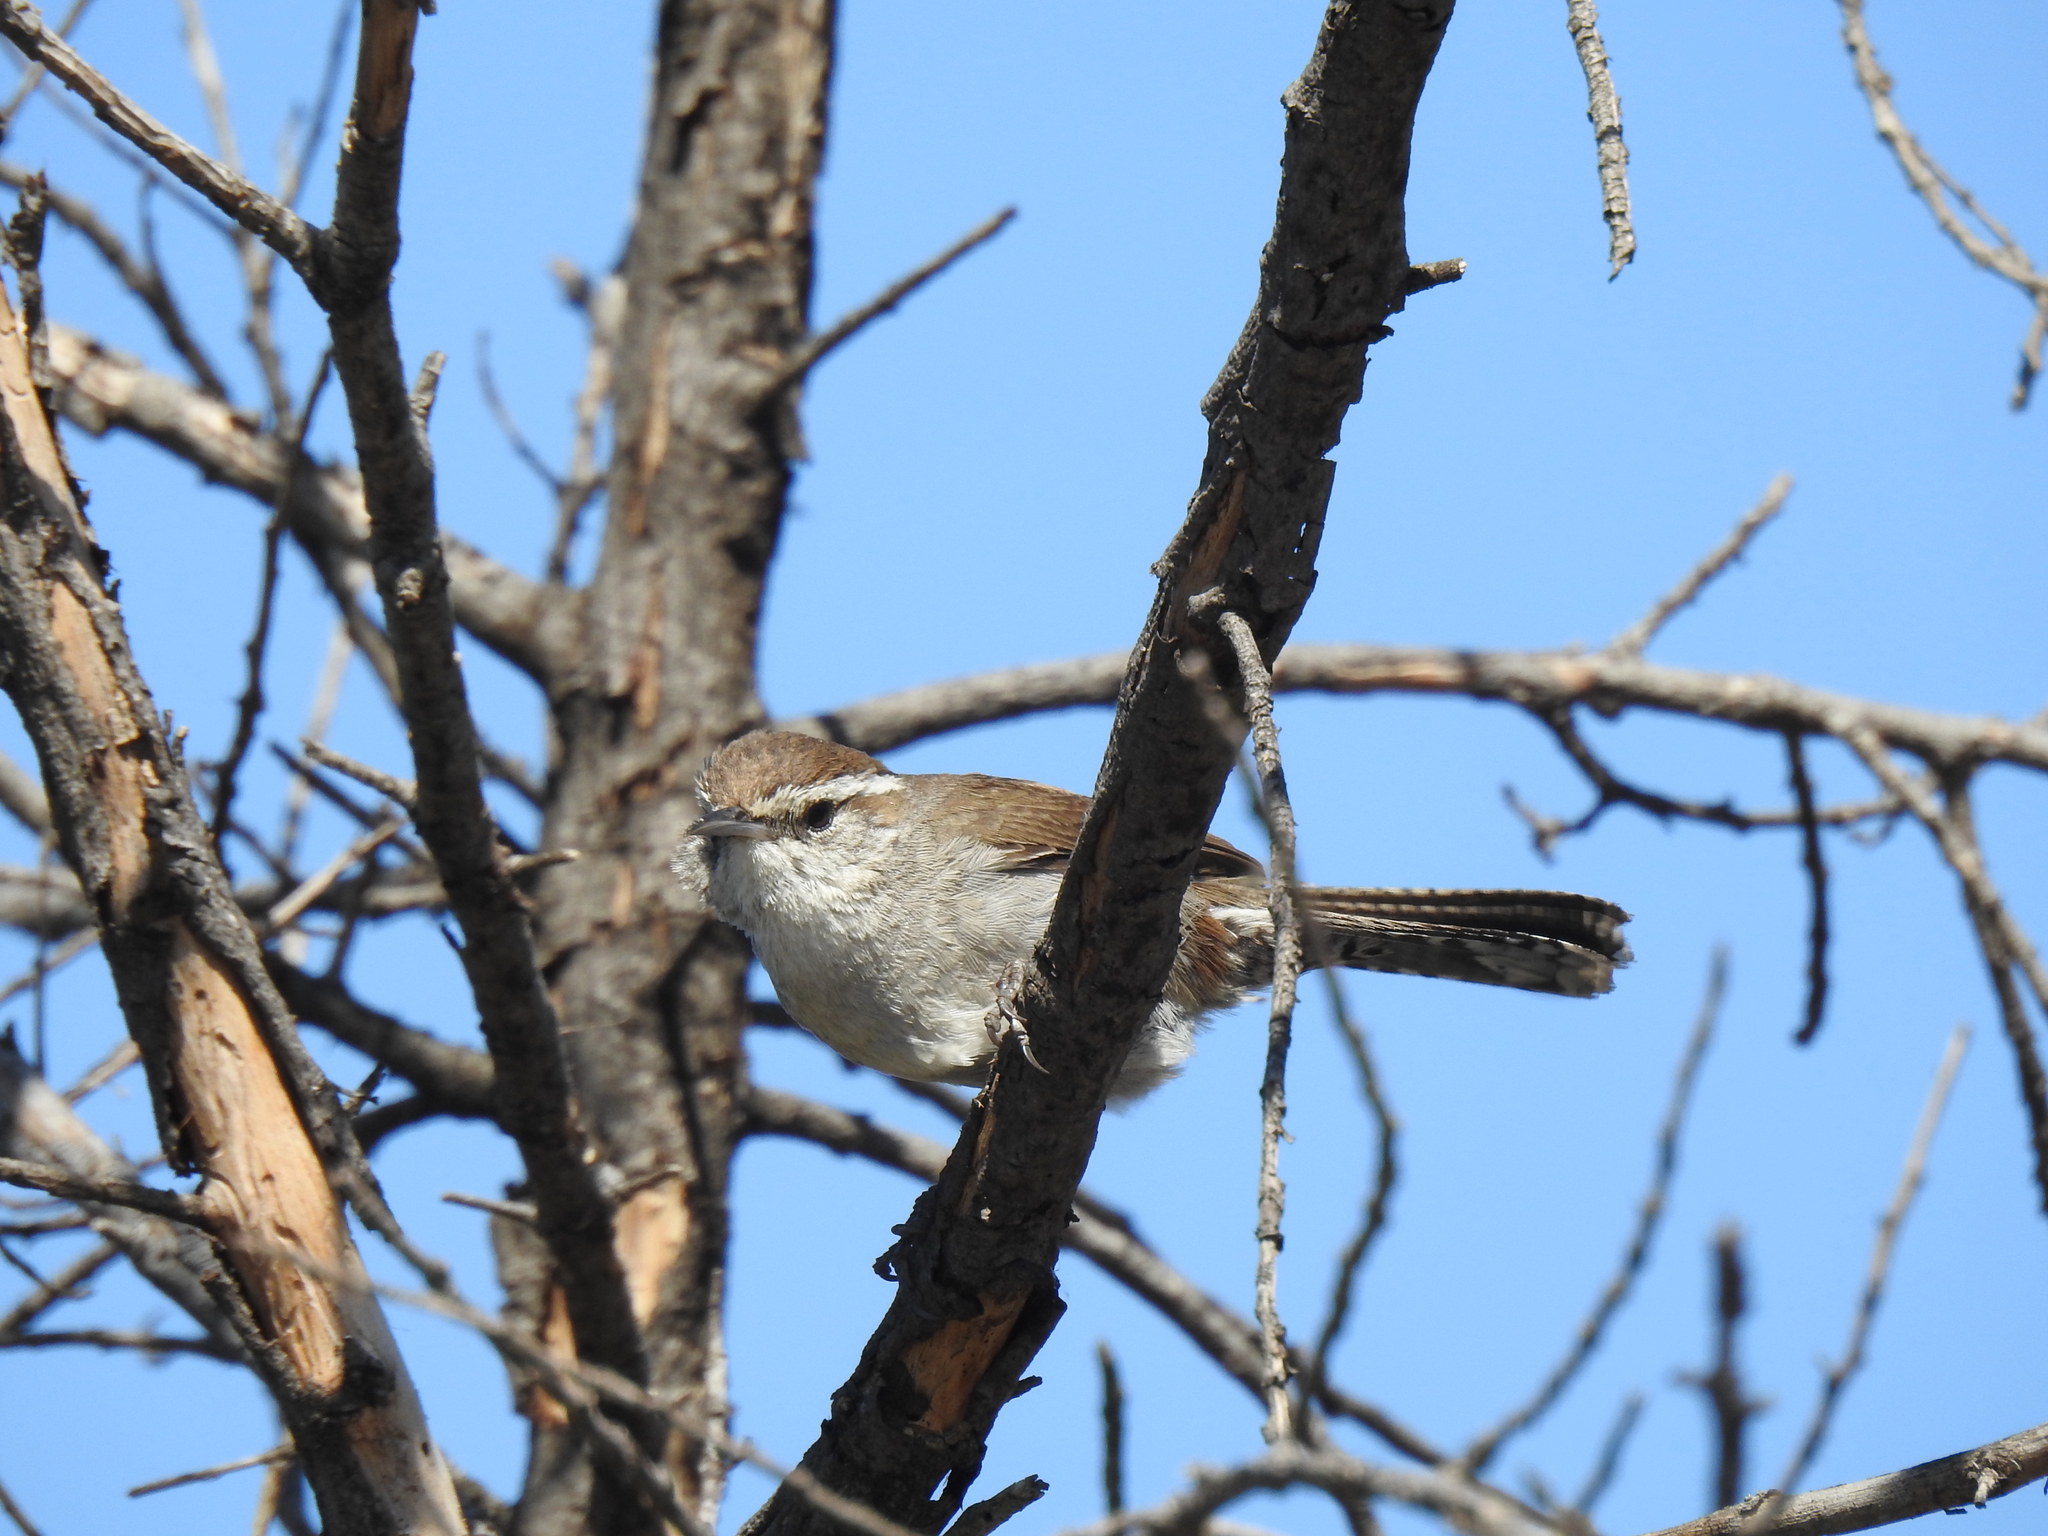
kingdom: Animalia
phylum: Chordata
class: Aves
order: Passeriformes
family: Troglodytidae
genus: Thryomanes
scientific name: Thryomanes bewickii
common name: Bewick's wren
